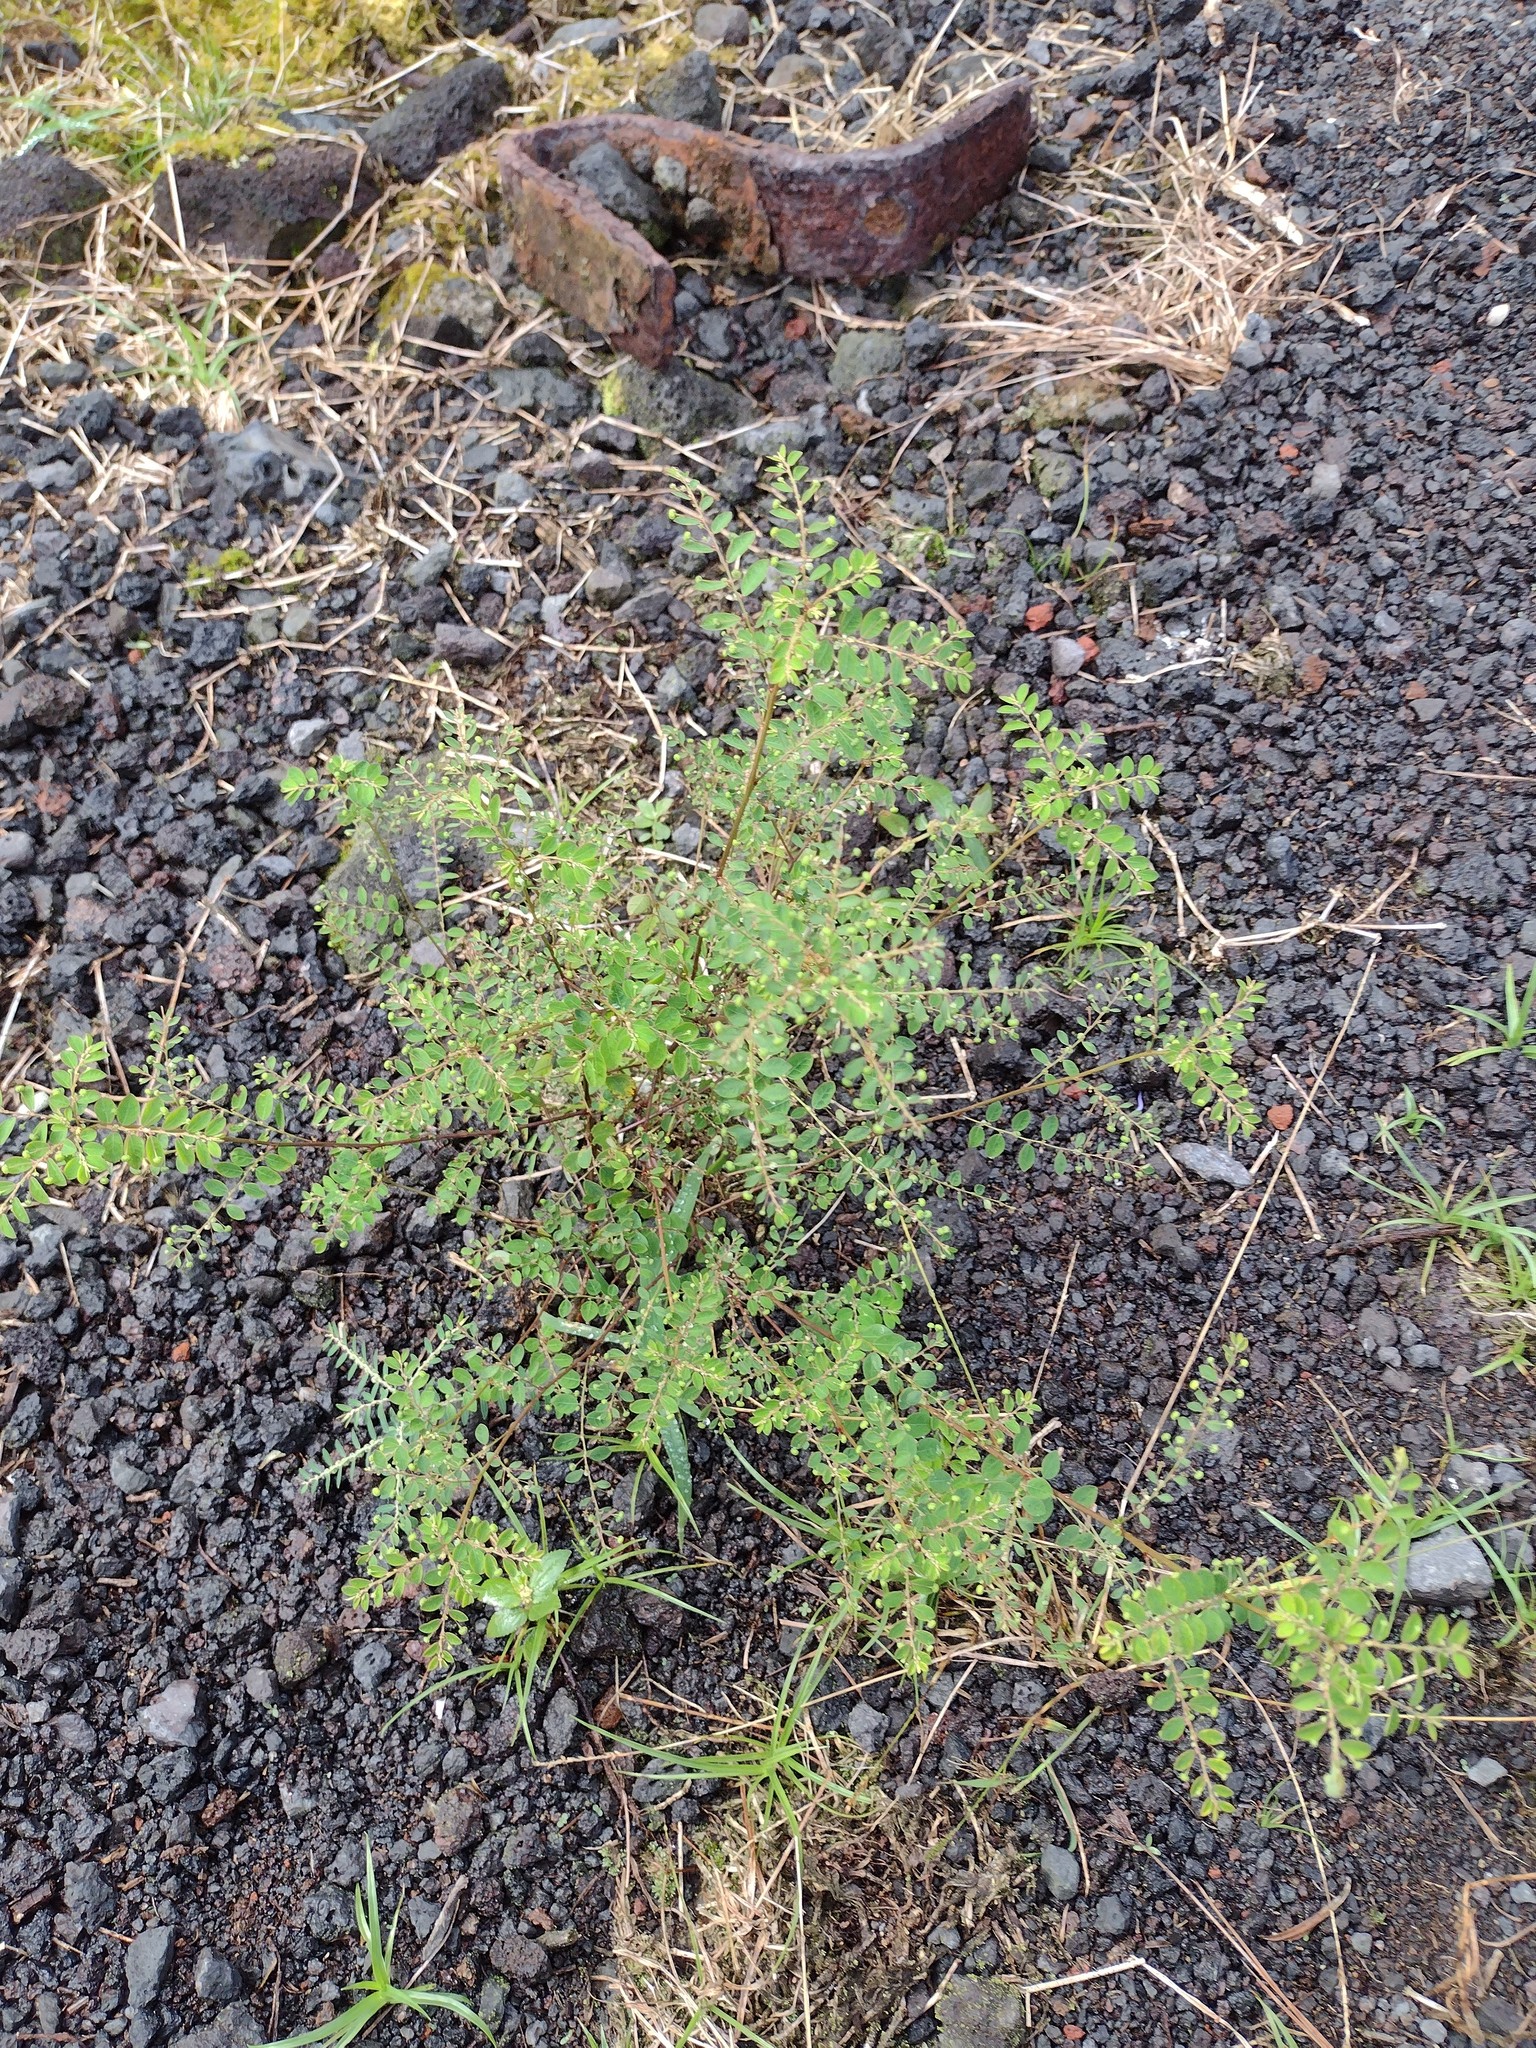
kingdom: Plantae
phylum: Tracheophyta
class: Magnoliopsida
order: Malpighiales
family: Phyllanthaceae
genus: Phyllanthus
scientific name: Phyllanthus tenellus
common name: Mascarene island leaf-flower
